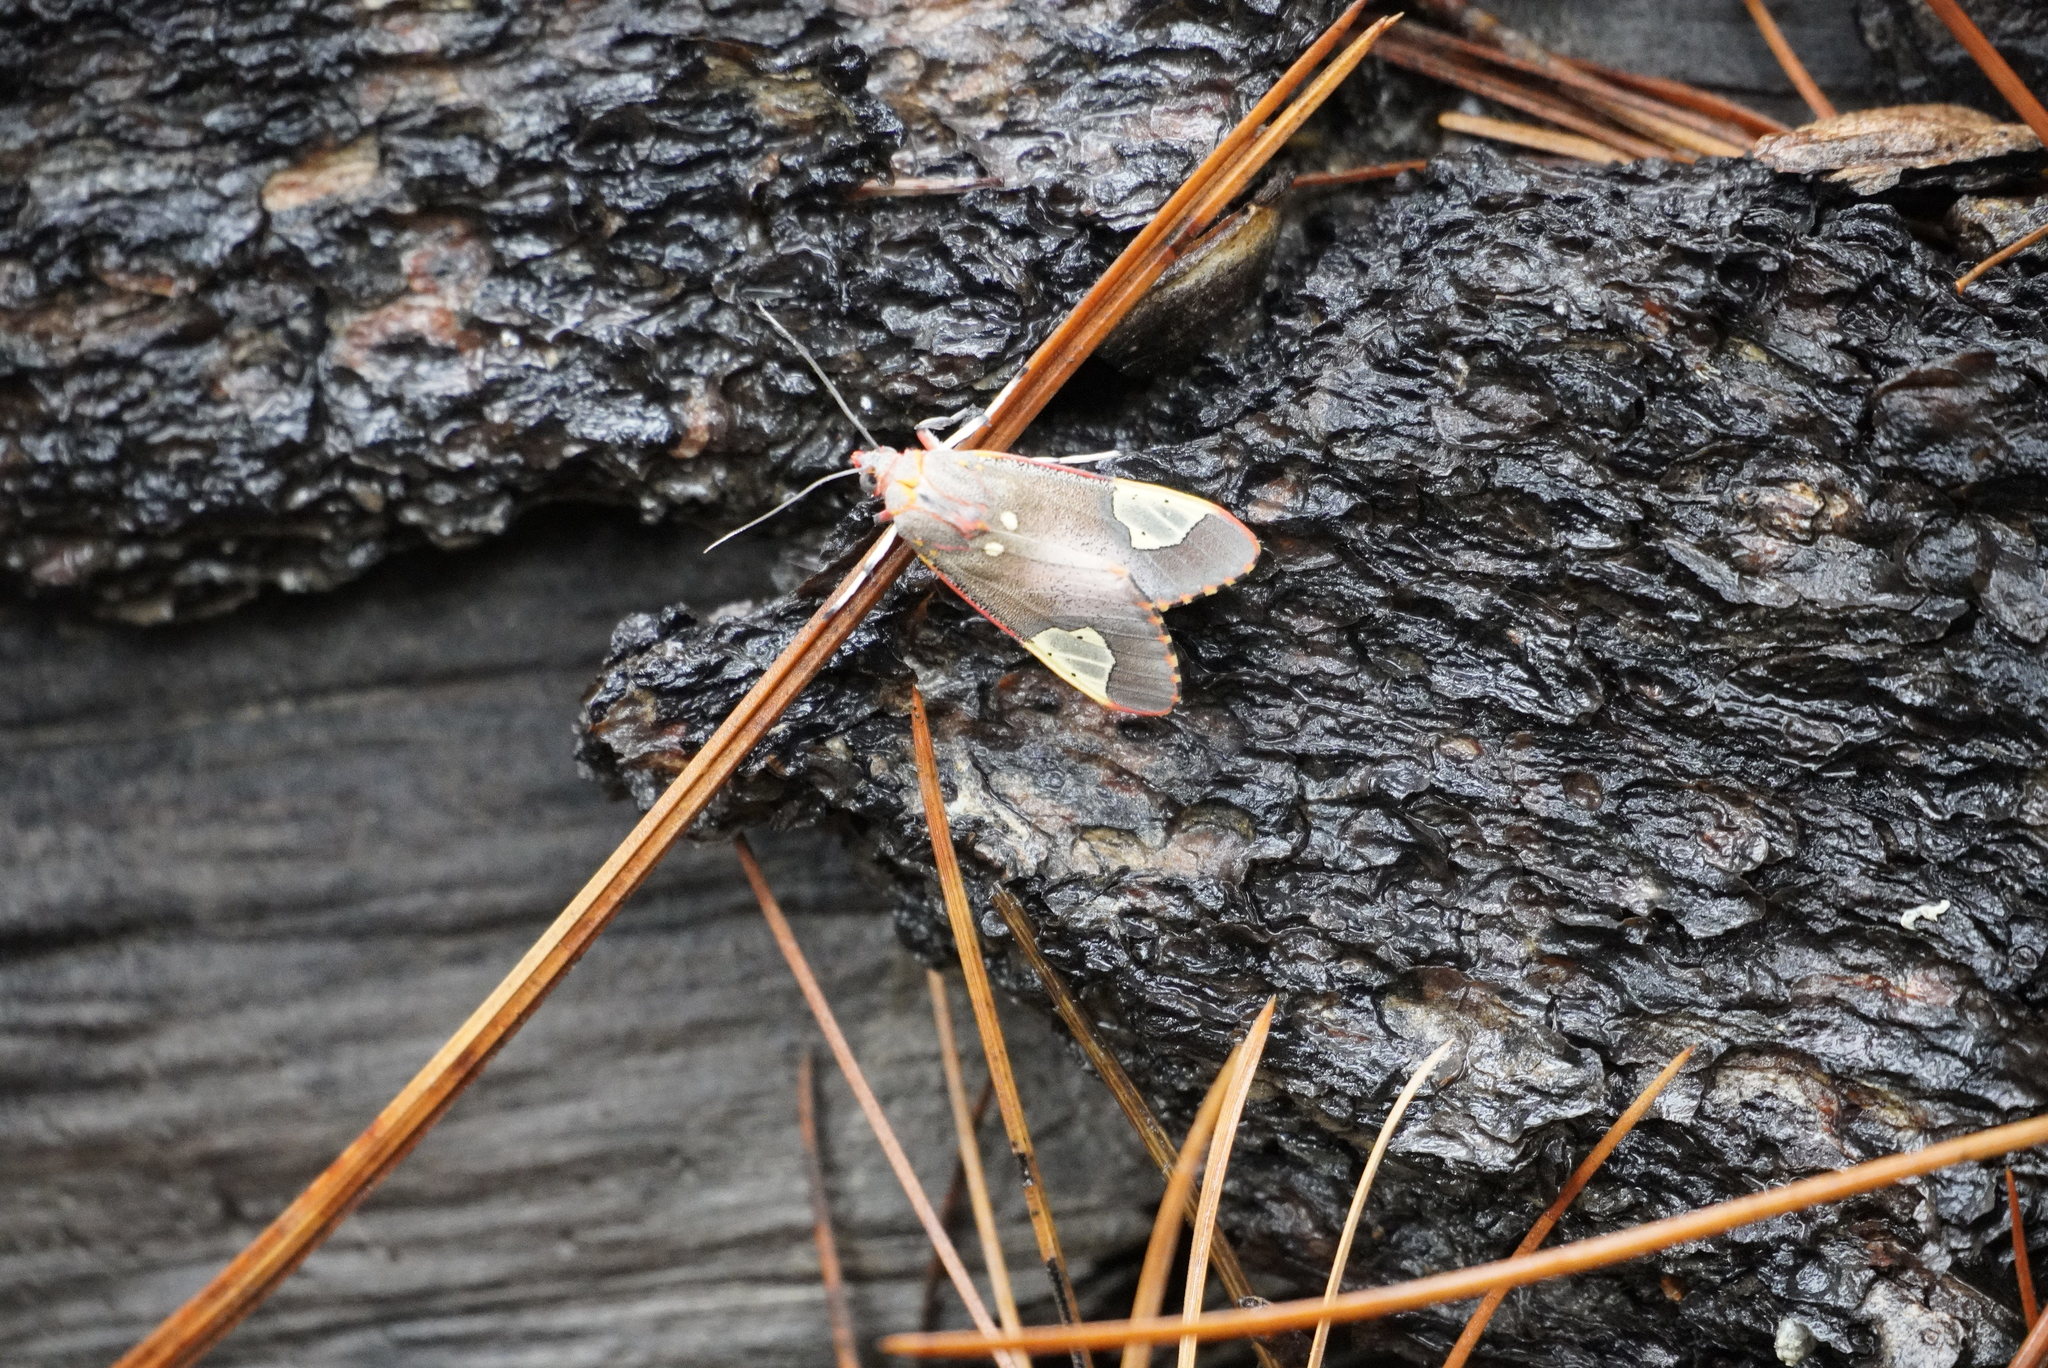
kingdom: Animalia
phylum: Arthropoda
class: Insecta
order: Lepidoptera
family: Erebidae
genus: Bertholdia
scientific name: Bertholdia trigona
